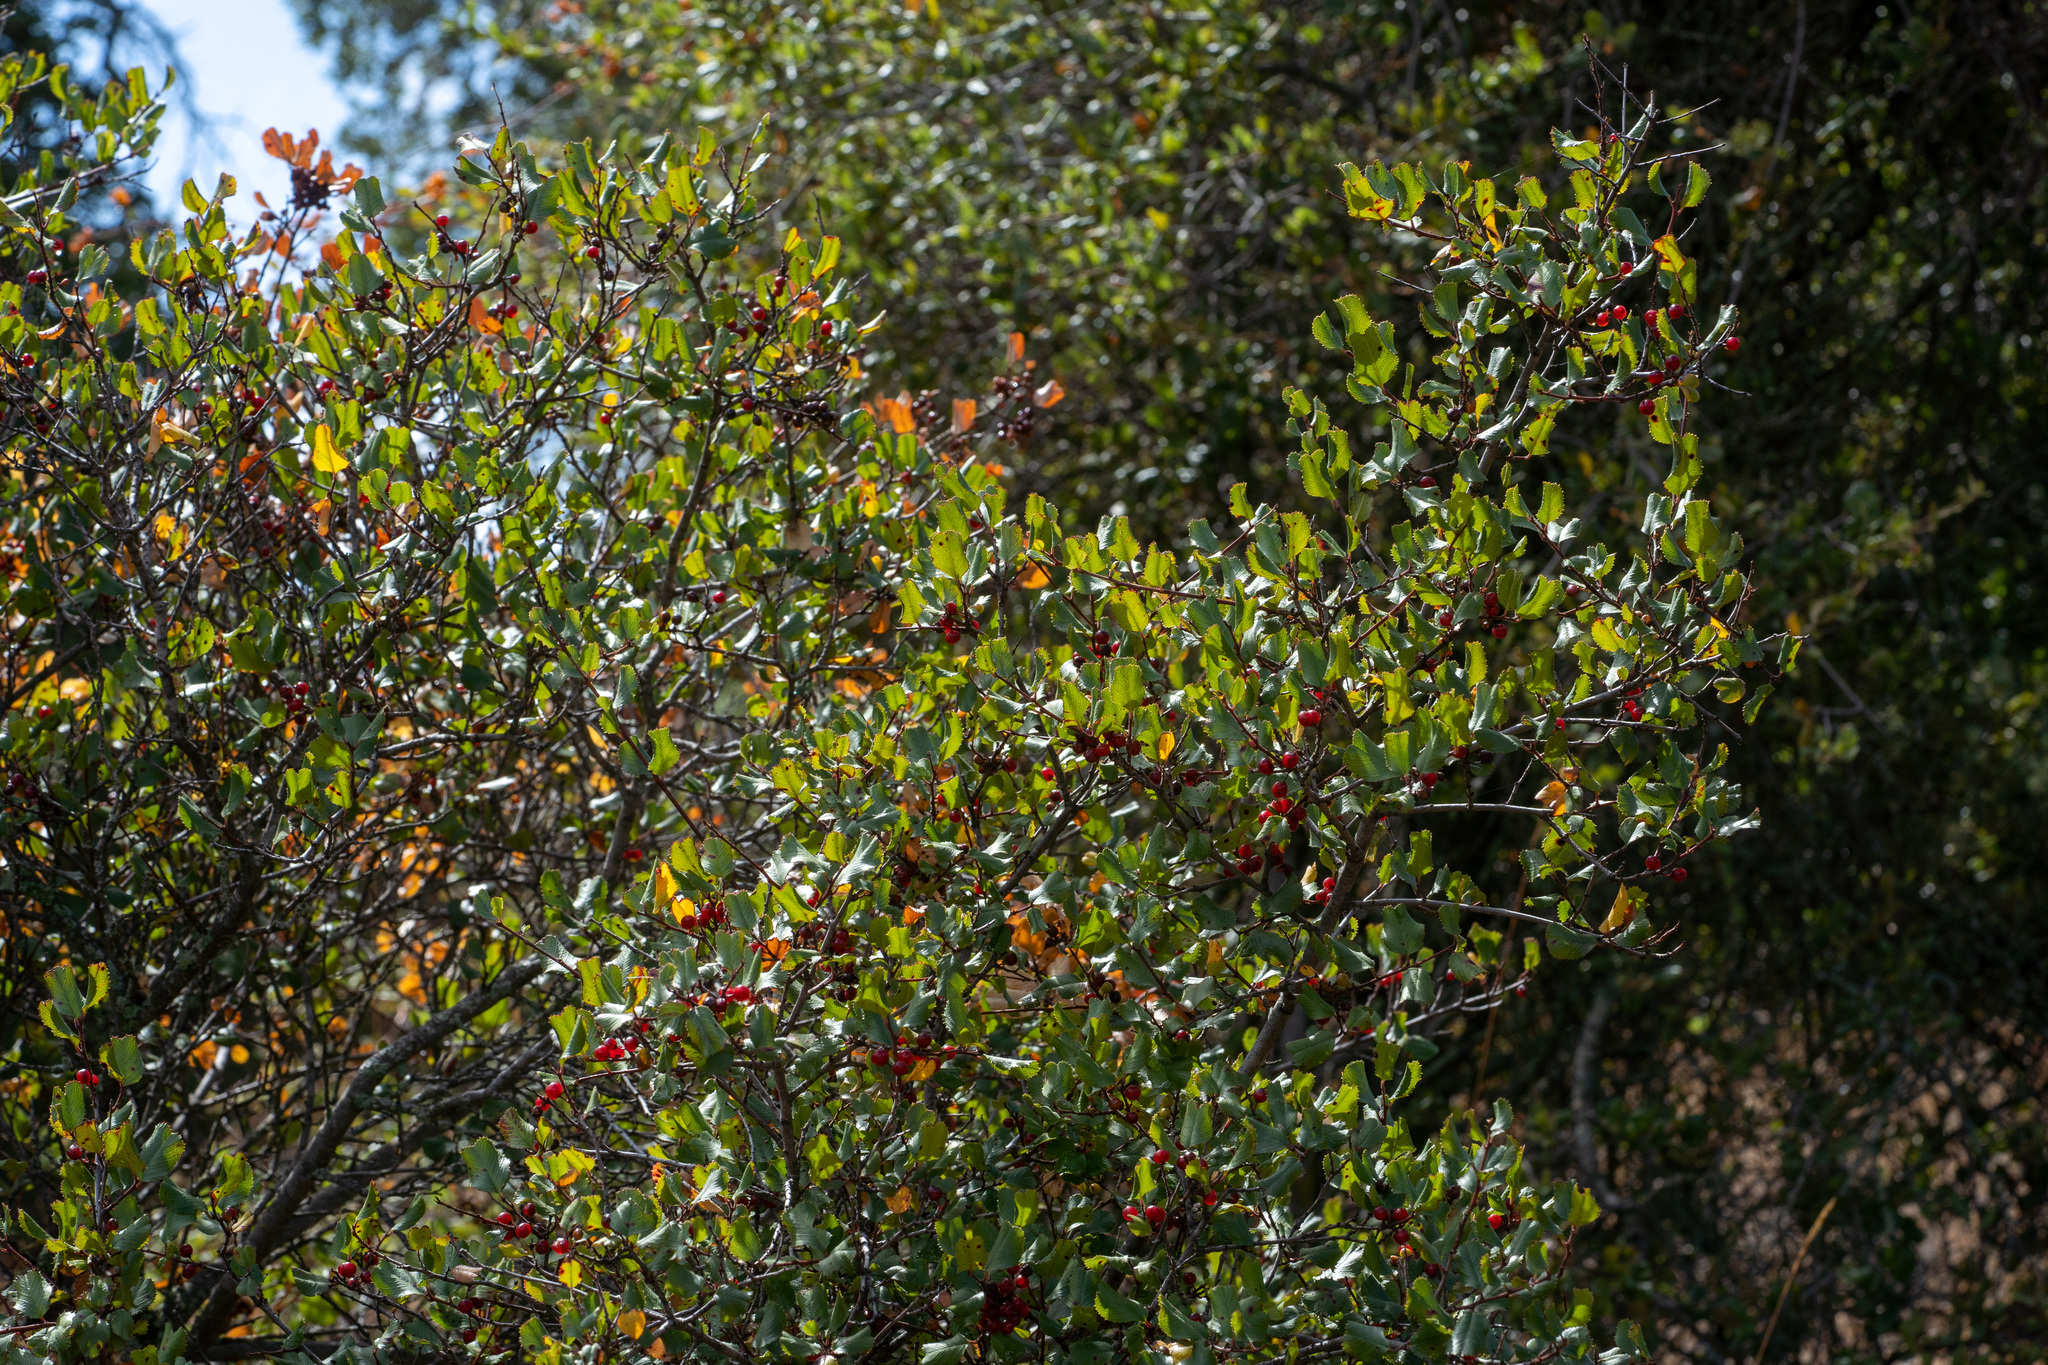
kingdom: Plantae
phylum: Tracheophyta
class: Magnoliopsida
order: Rosales
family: Rhamnaceae
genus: Endotropis
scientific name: Endotropis crocea
